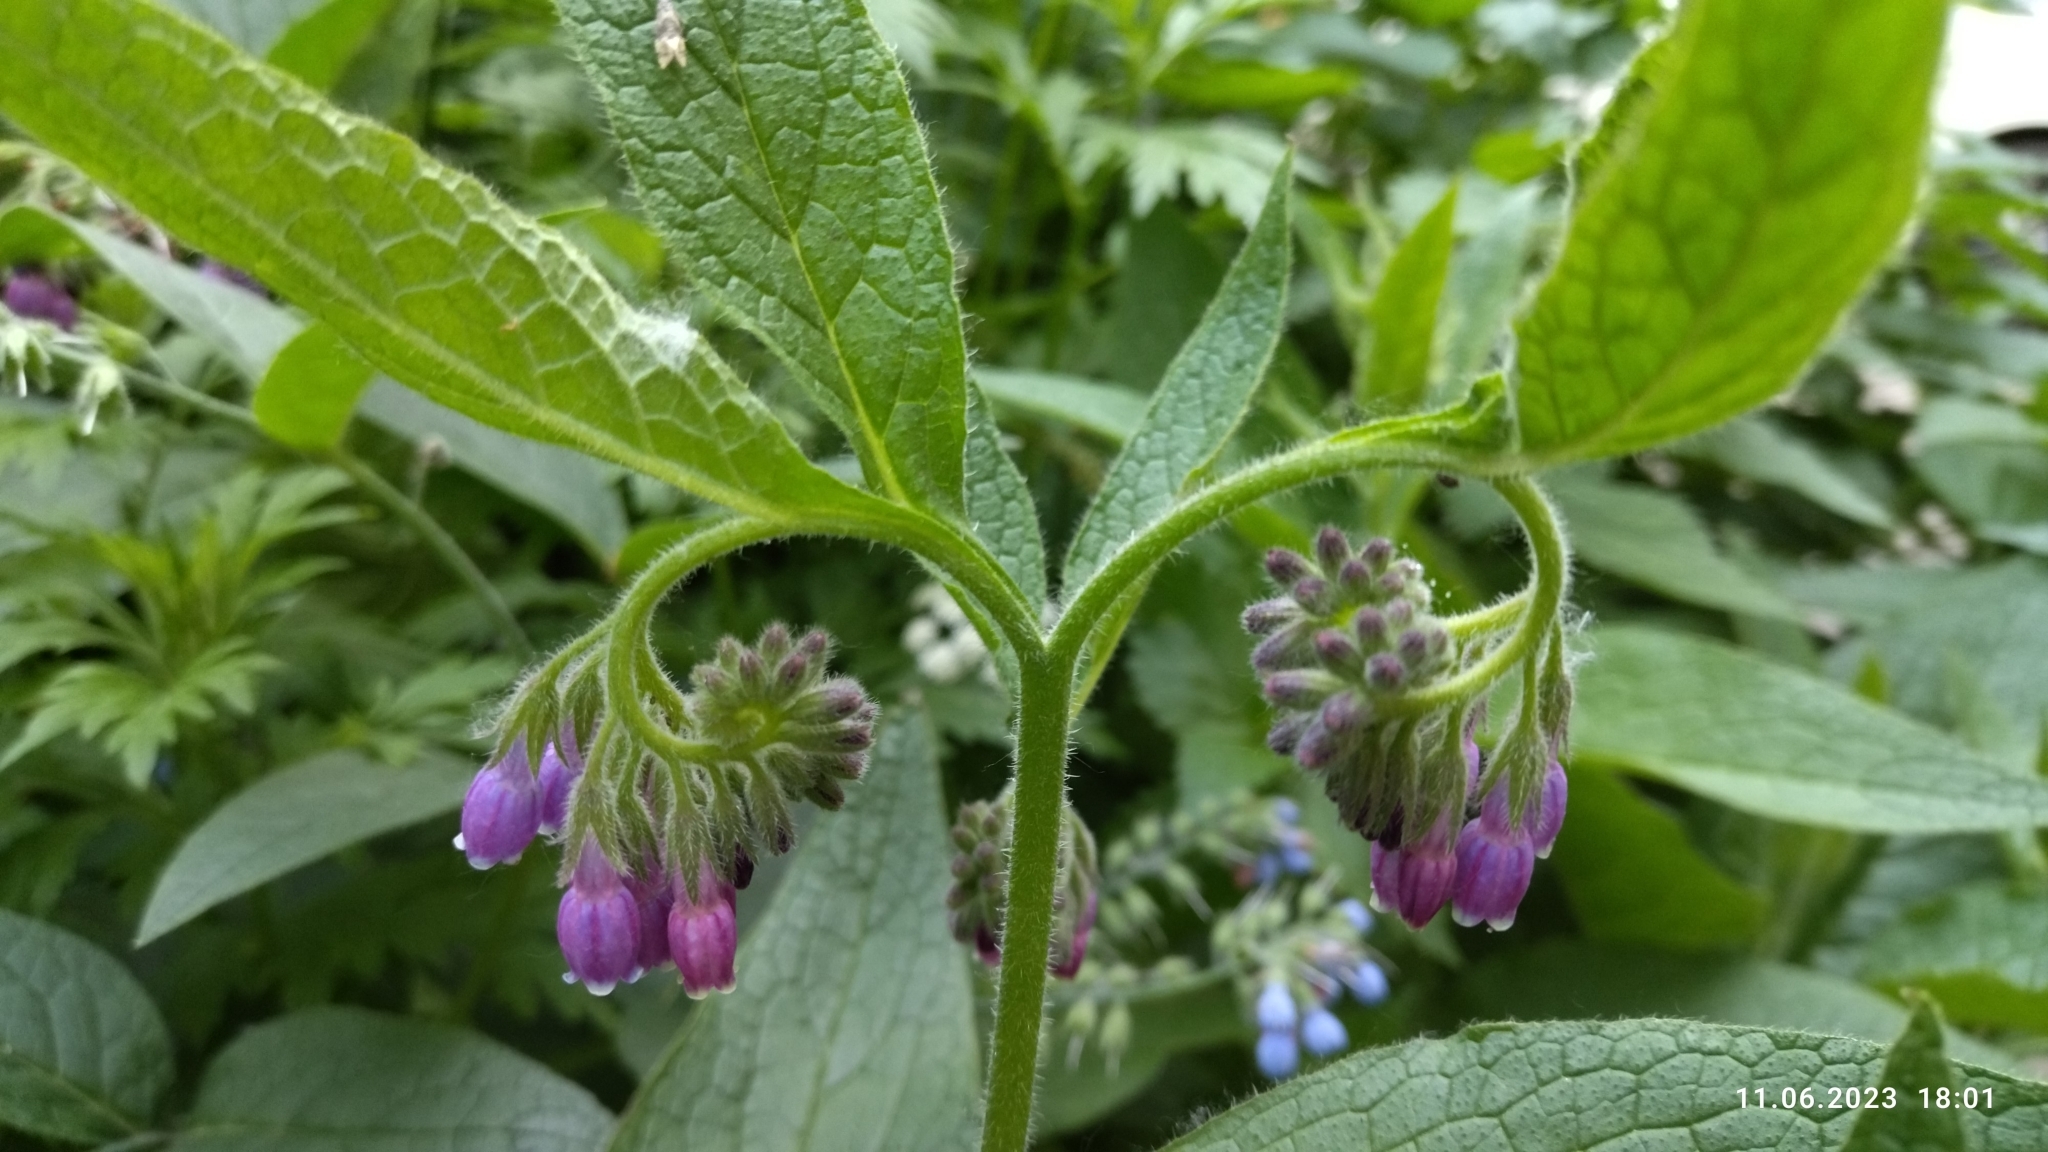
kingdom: Plantae
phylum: Tracheophyta
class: Magnoliopsida
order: Boraginales
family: Boraginaceae
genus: Symphytum
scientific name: Symphytum uplandicum
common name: Russian comfrey
